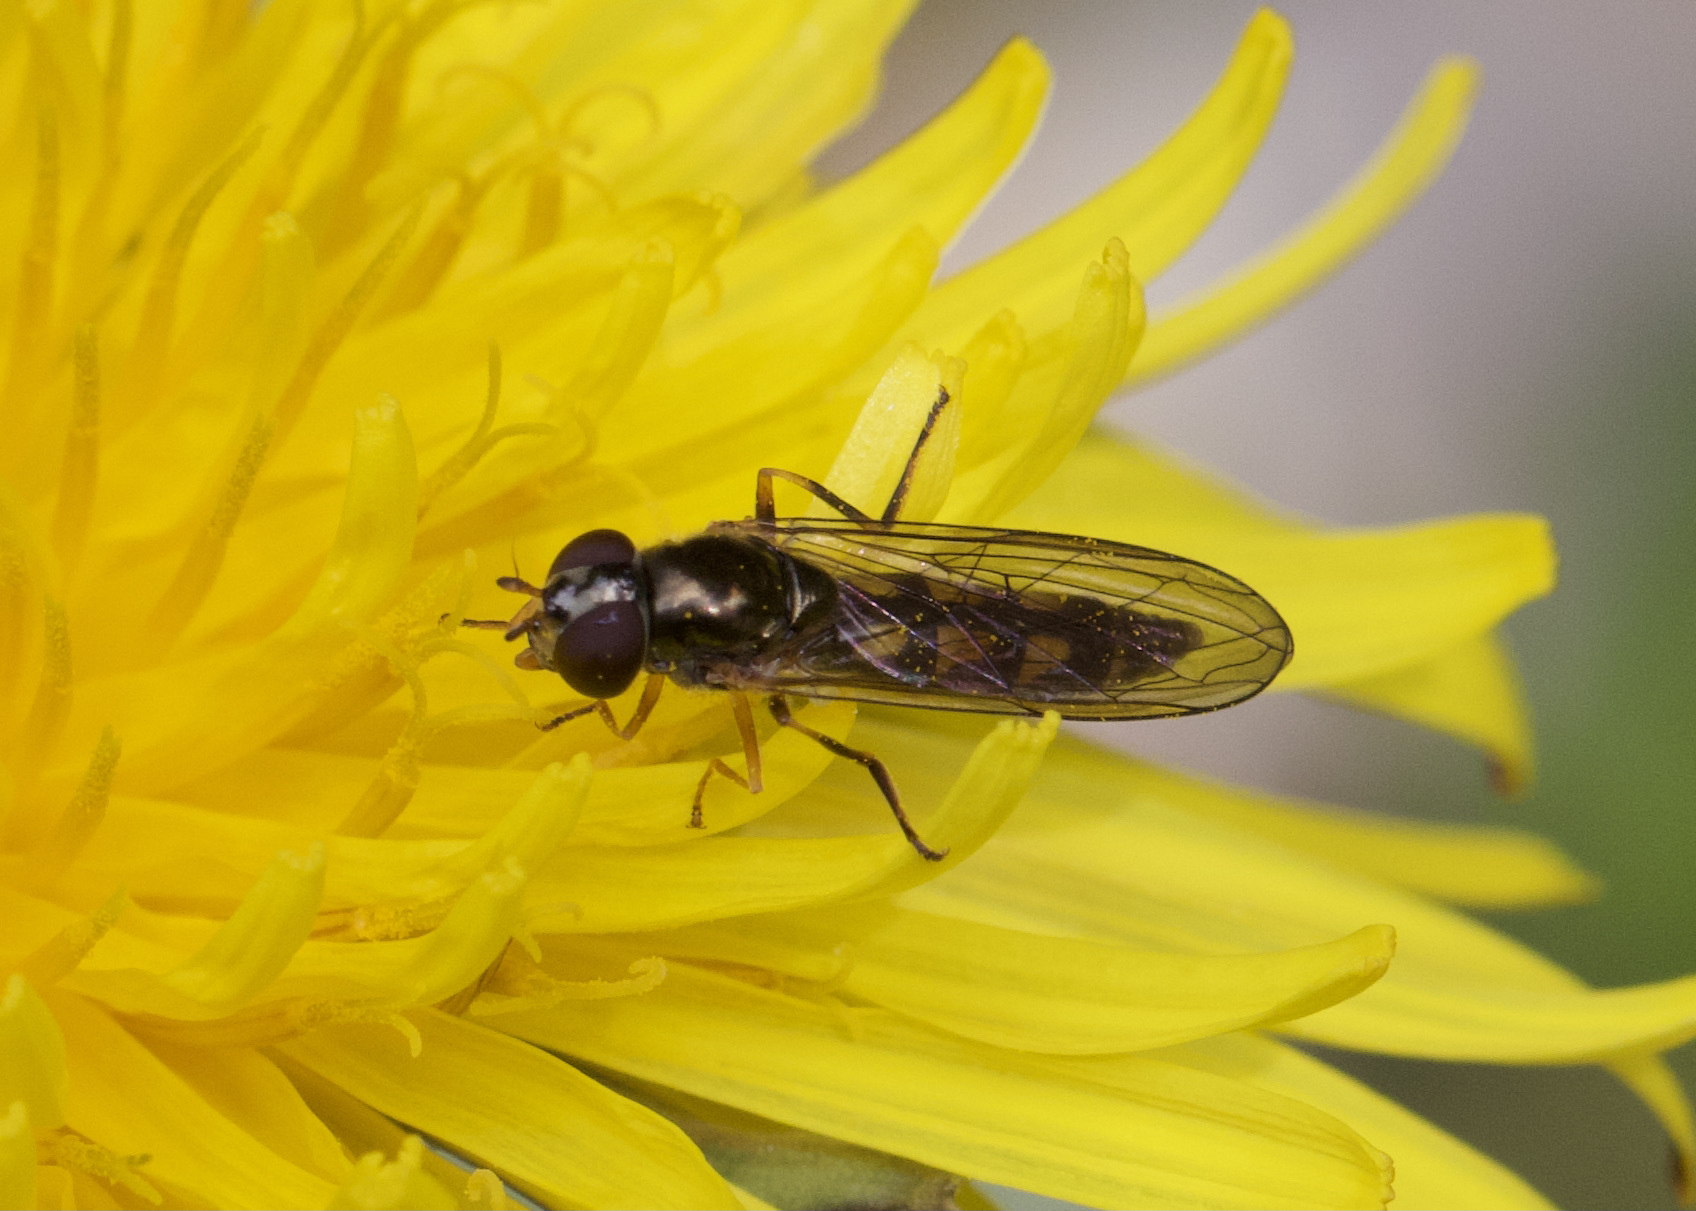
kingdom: Animalia
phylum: Arthropoda
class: Insecta
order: Diptera
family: Syrphidae
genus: Melanostoma
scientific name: Melanostoma scalare
